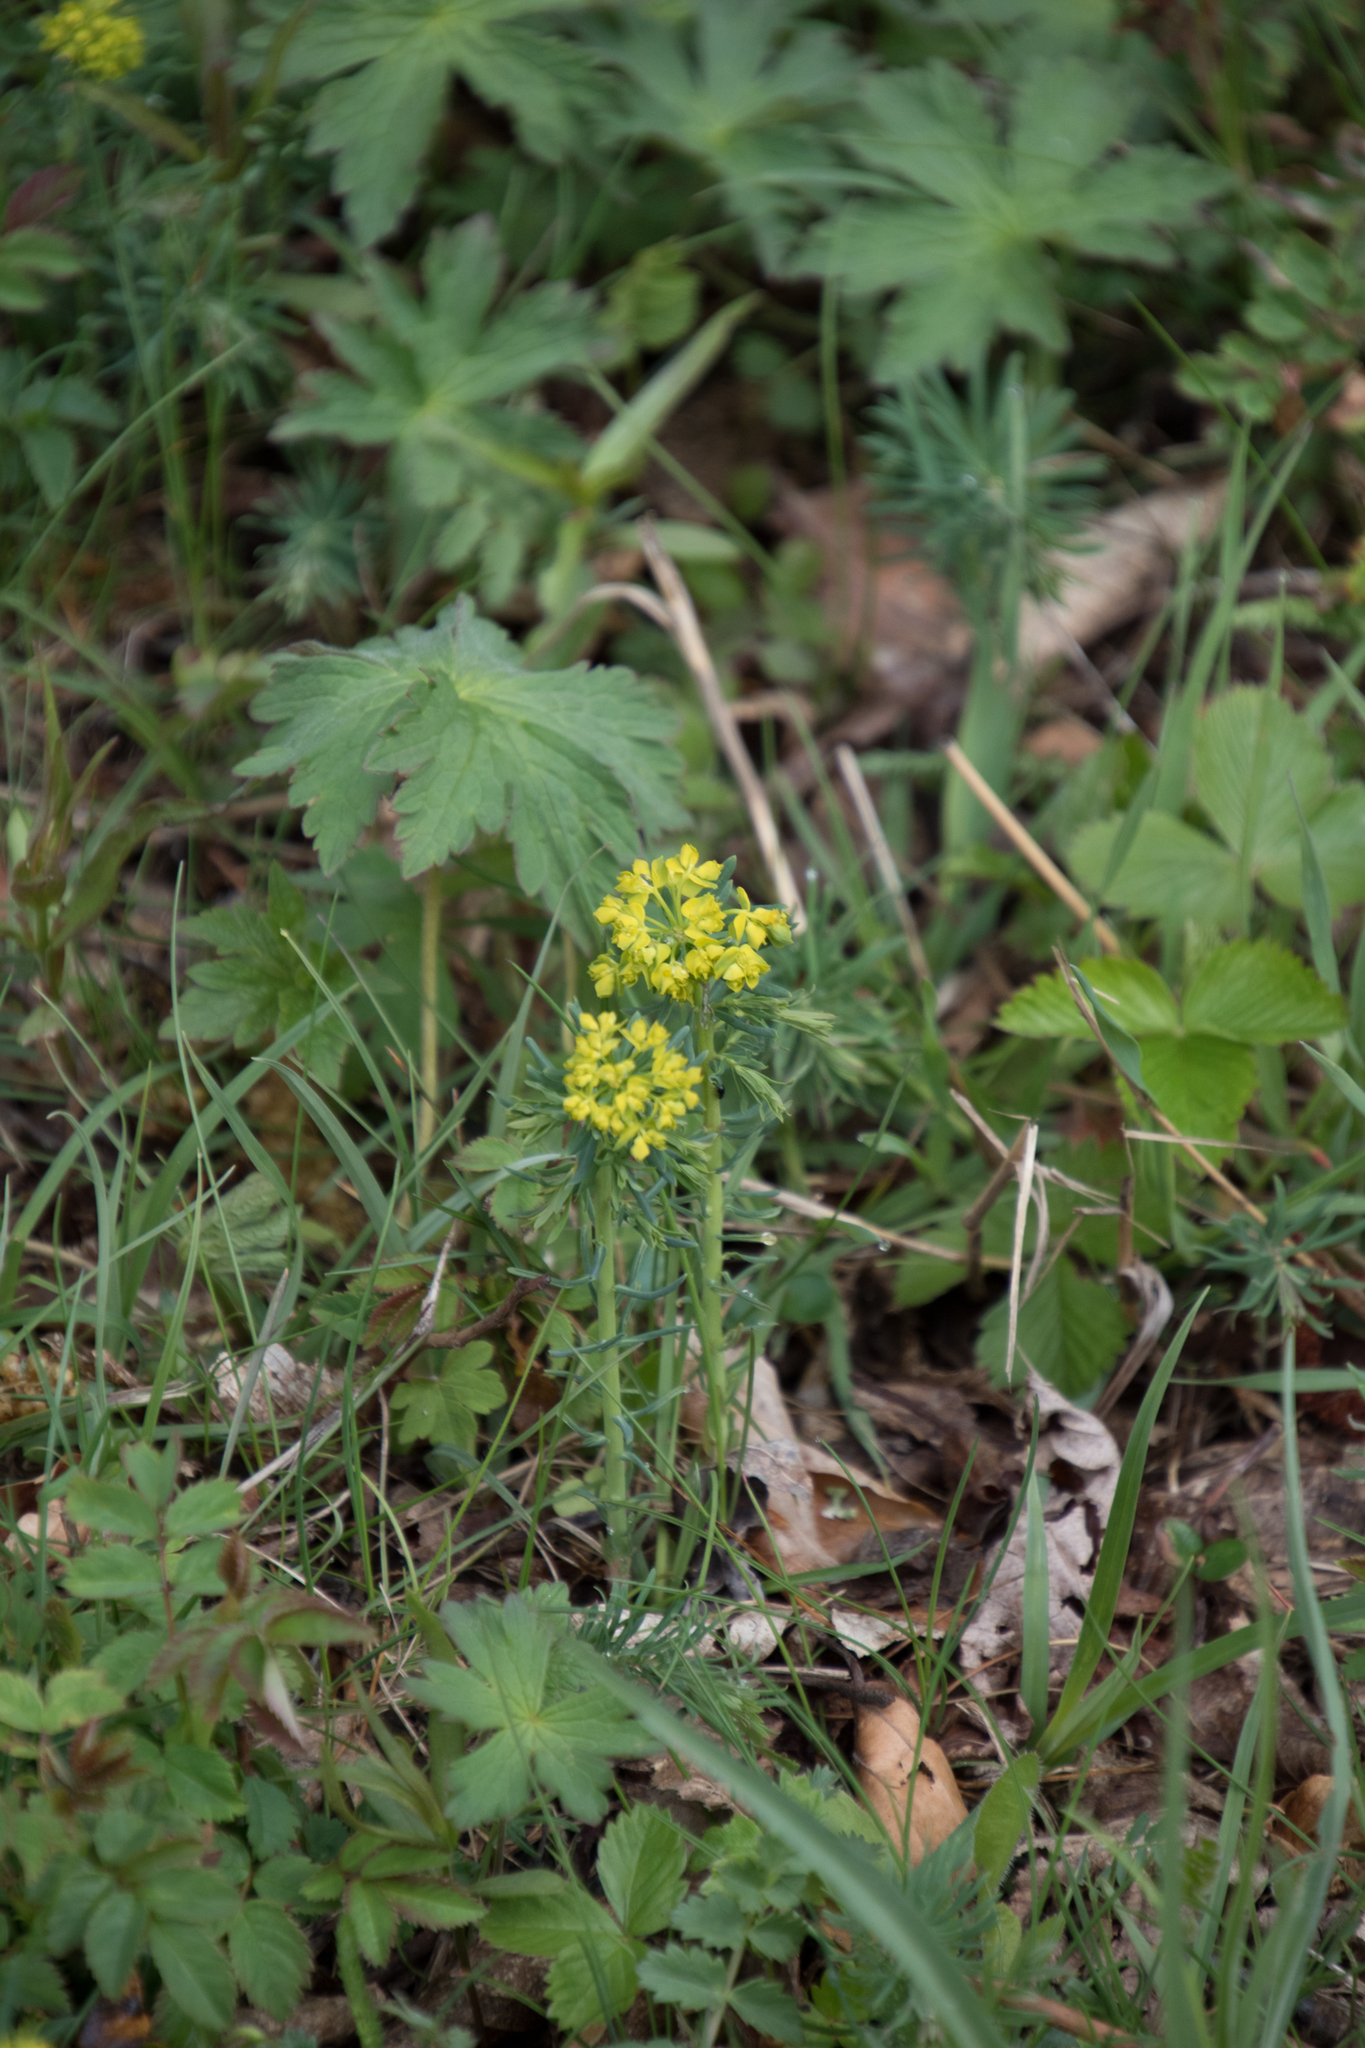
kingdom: Plantae
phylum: Tracheophyta
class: Magnoliopsida
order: Malpighiales
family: Euphorbiaceae
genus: Euphorbia
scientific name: Euphorbia cyparissias
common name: Cypress spurge
